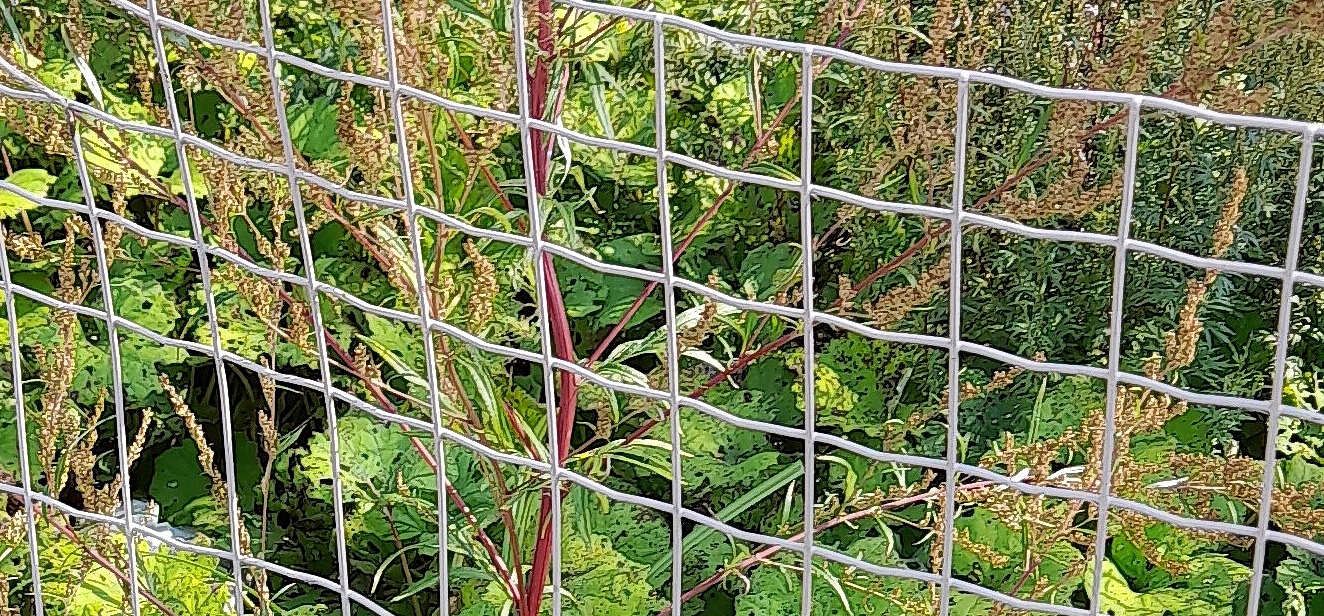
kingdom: Plantae
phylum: Tracheophyta
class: Magnoliopsida
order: Asterales
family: Asteraceae
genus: Artemisia
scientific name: Artemisia vulgaris
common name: Mugwort
